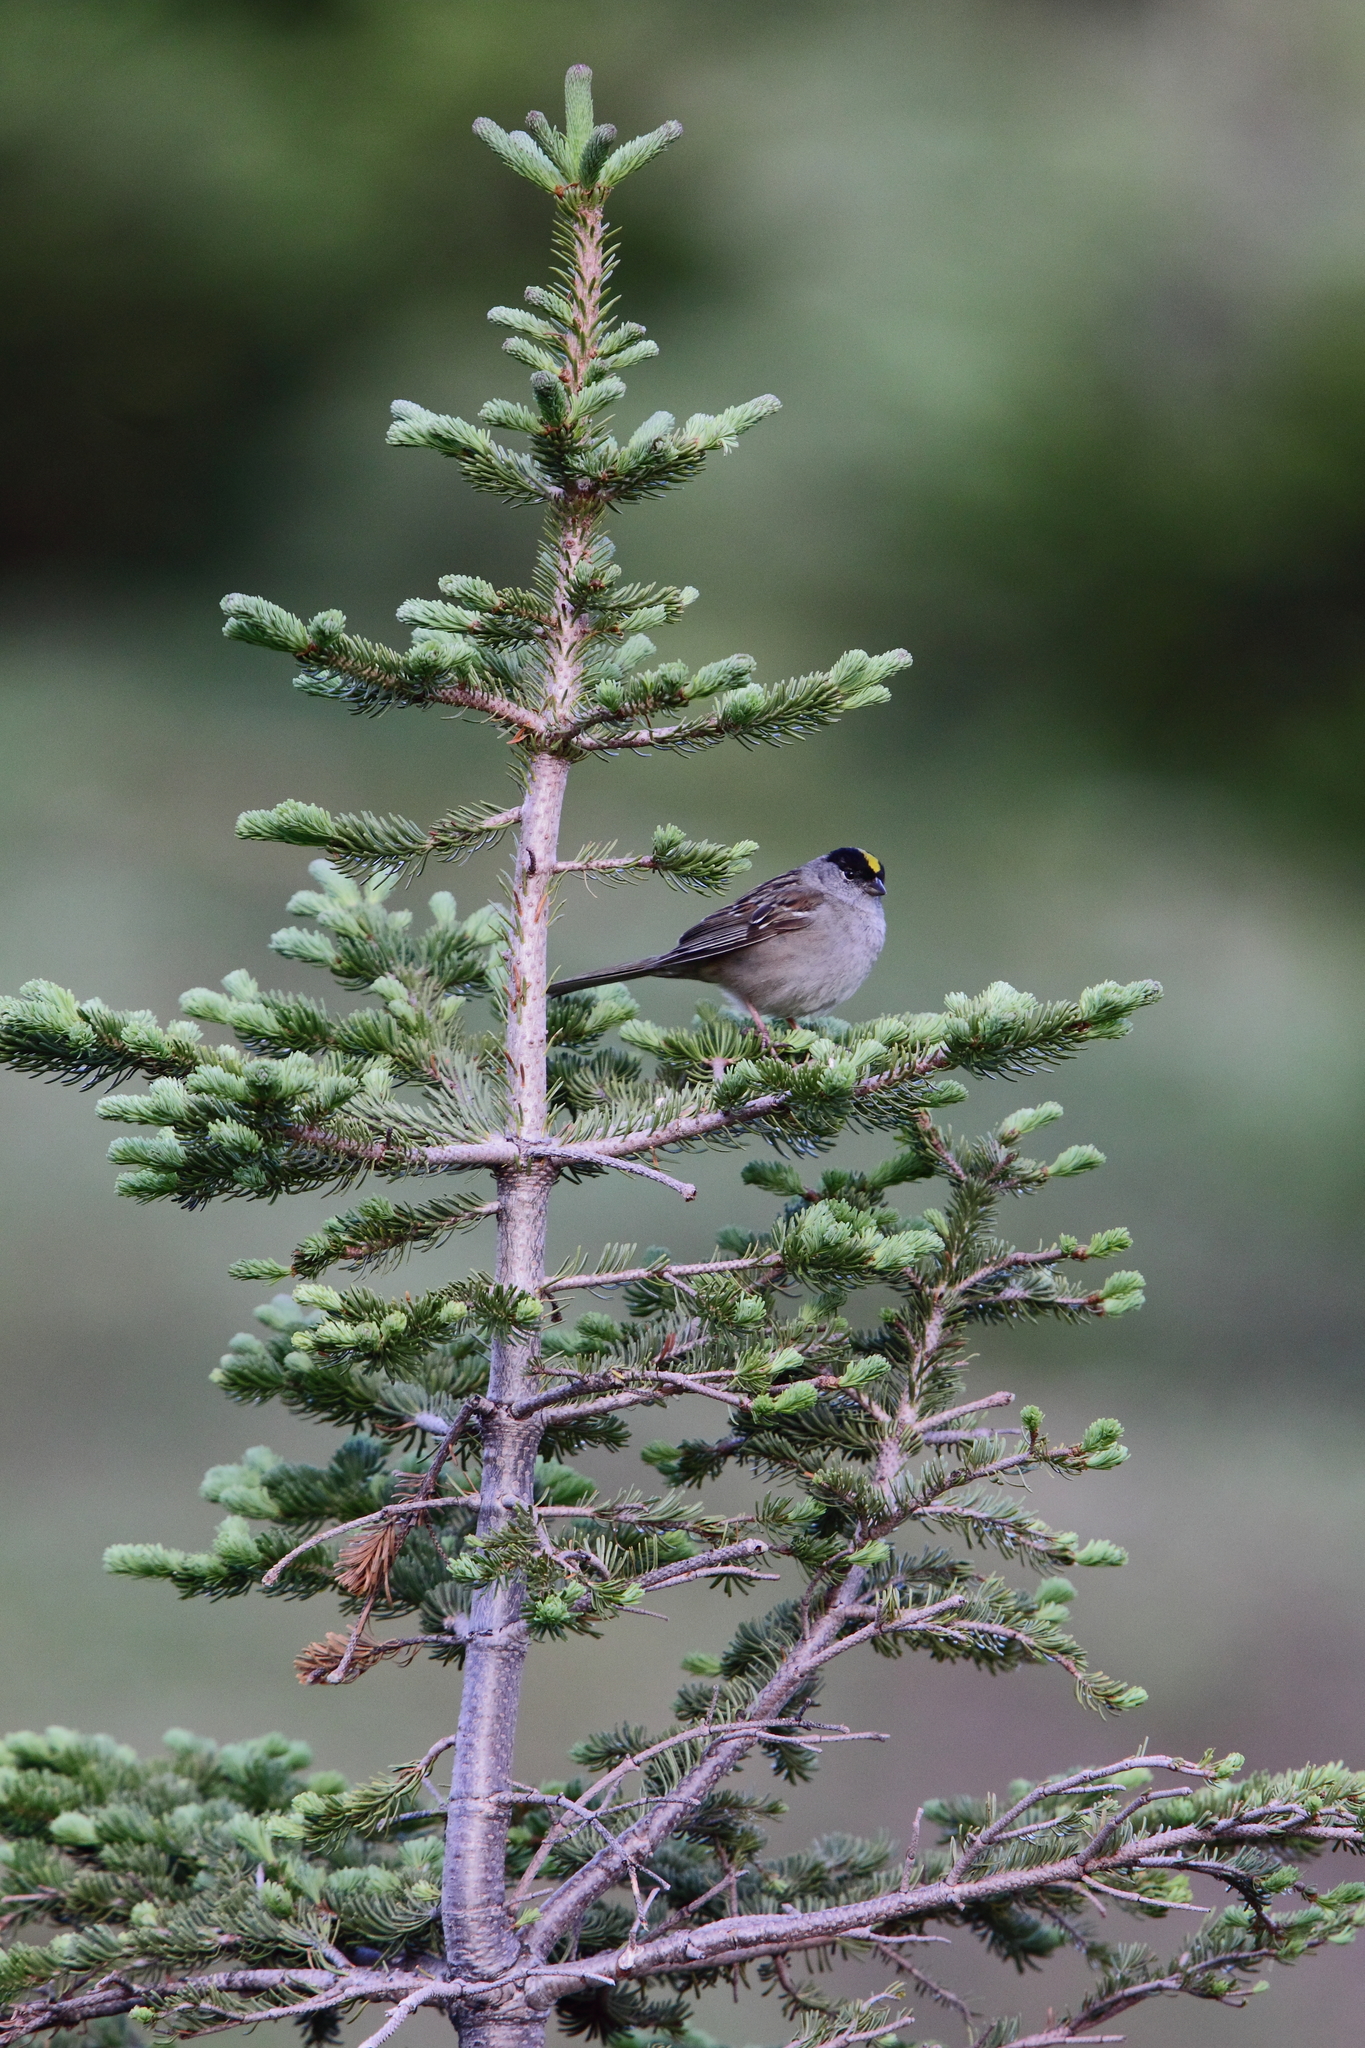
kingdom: Animalia
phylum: Chordata
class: Aves
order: Passeriformes
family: Passerellidae
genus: Zonotrichia
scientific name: Zonotrichia atricapilla
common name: Golden-crowned sparrow
